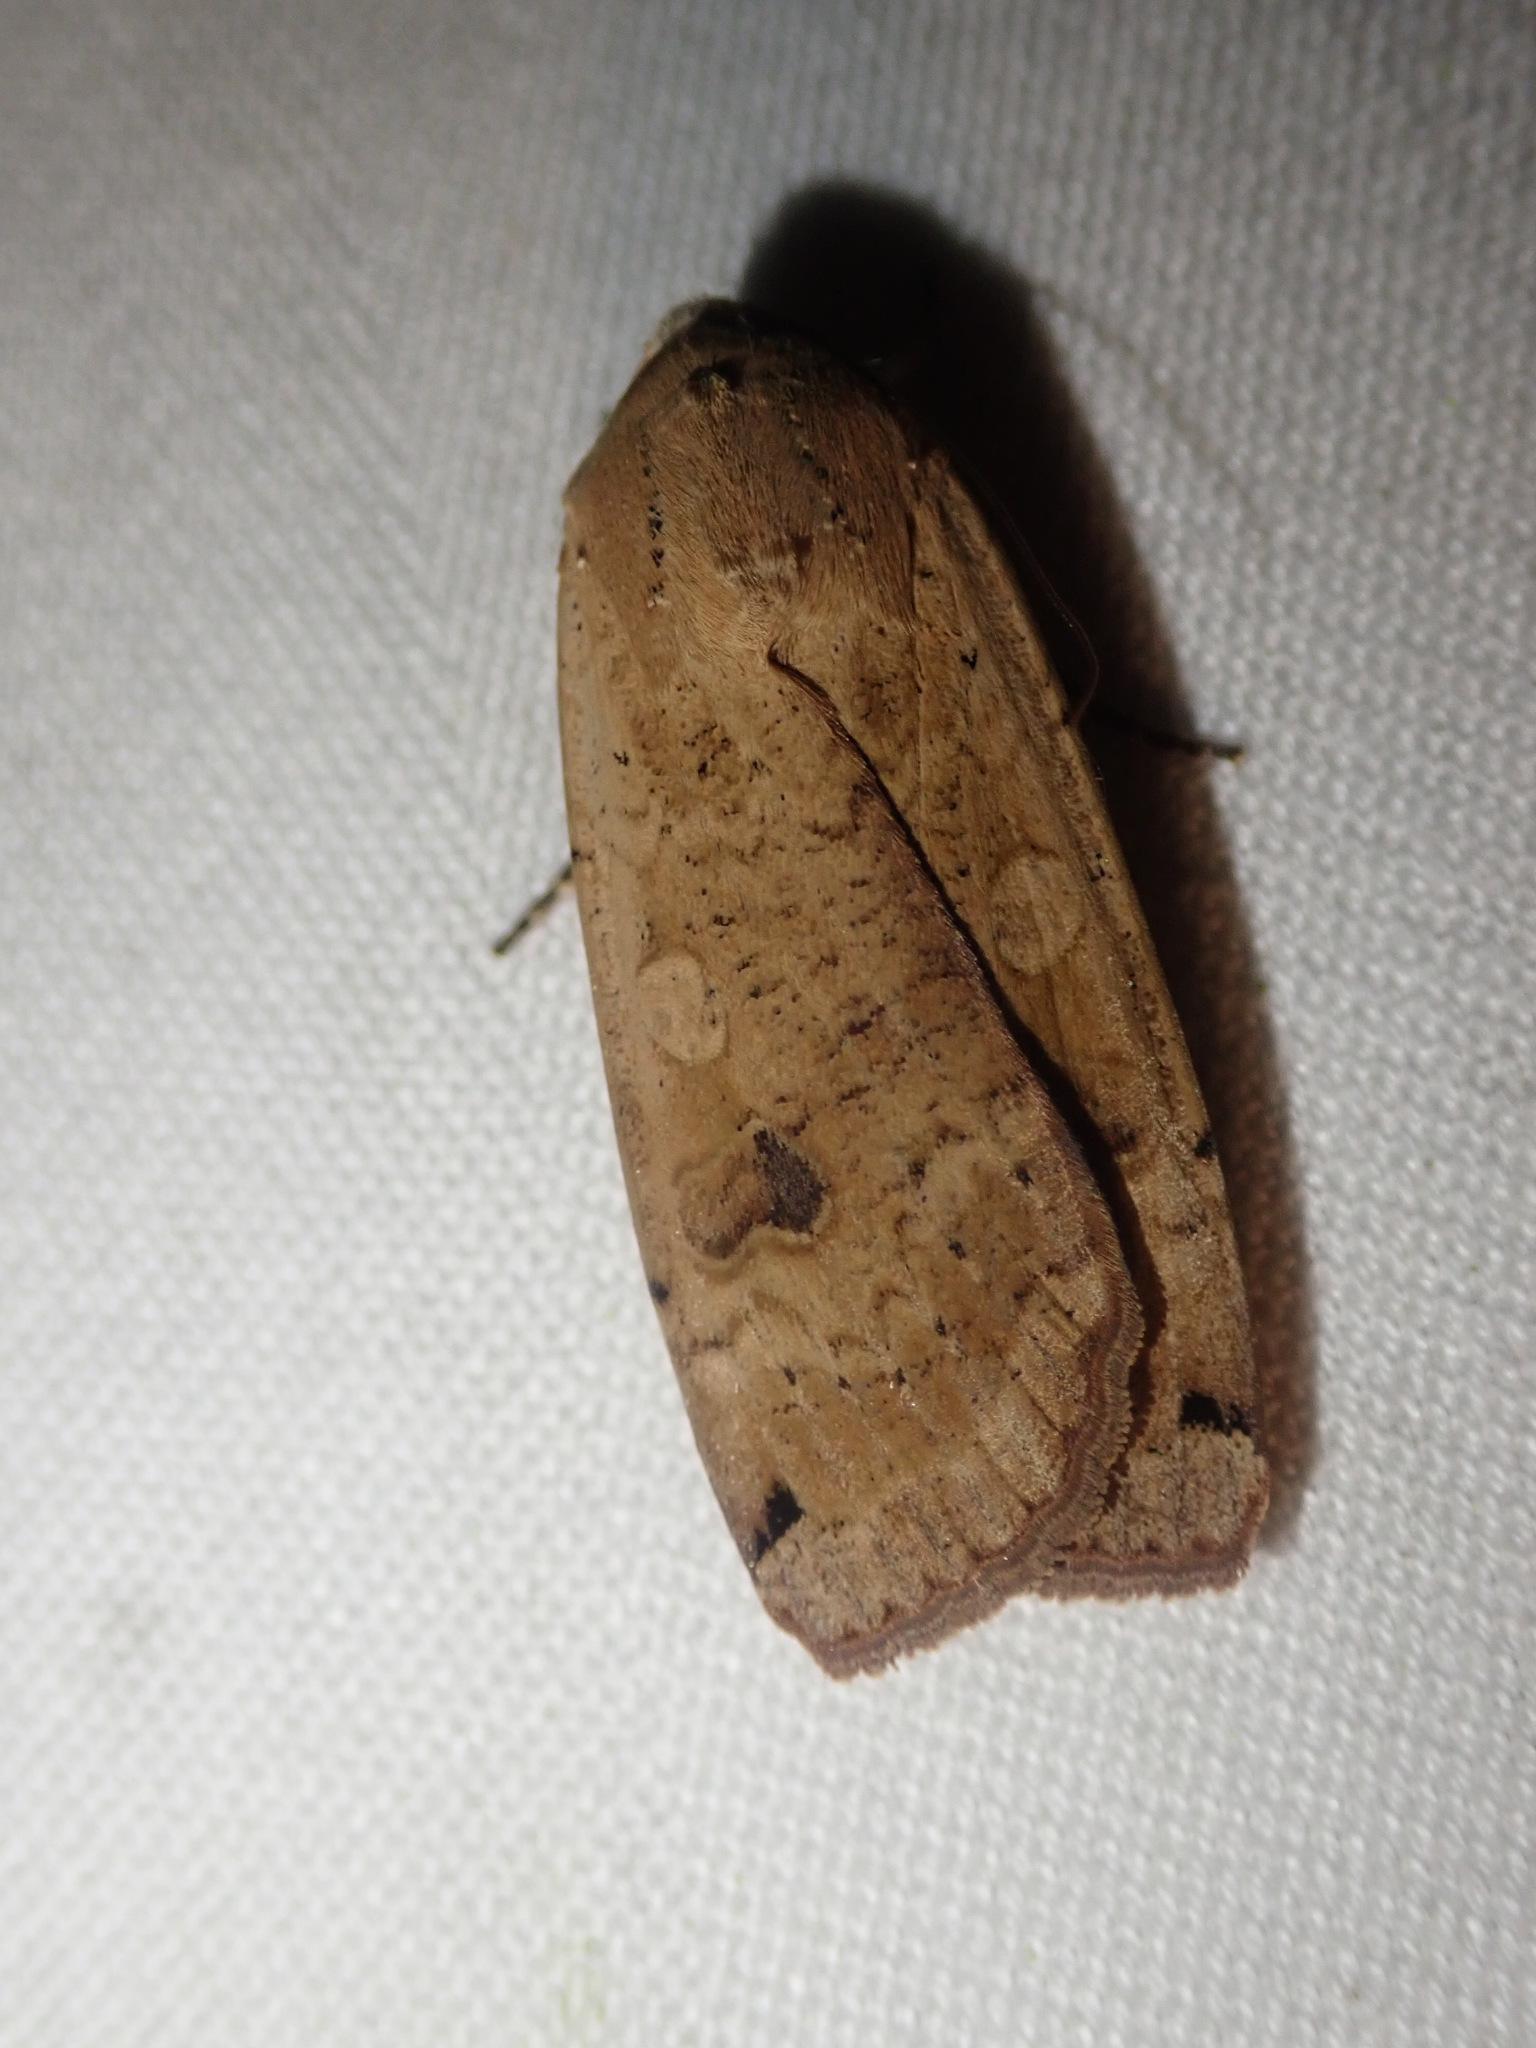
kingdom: Animalia
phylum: Arthropoda
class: Insecta
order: Lepidoptera
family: Noctuidae
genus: Noctua
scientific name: Noctua pronuba
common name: Large yellow underwing
